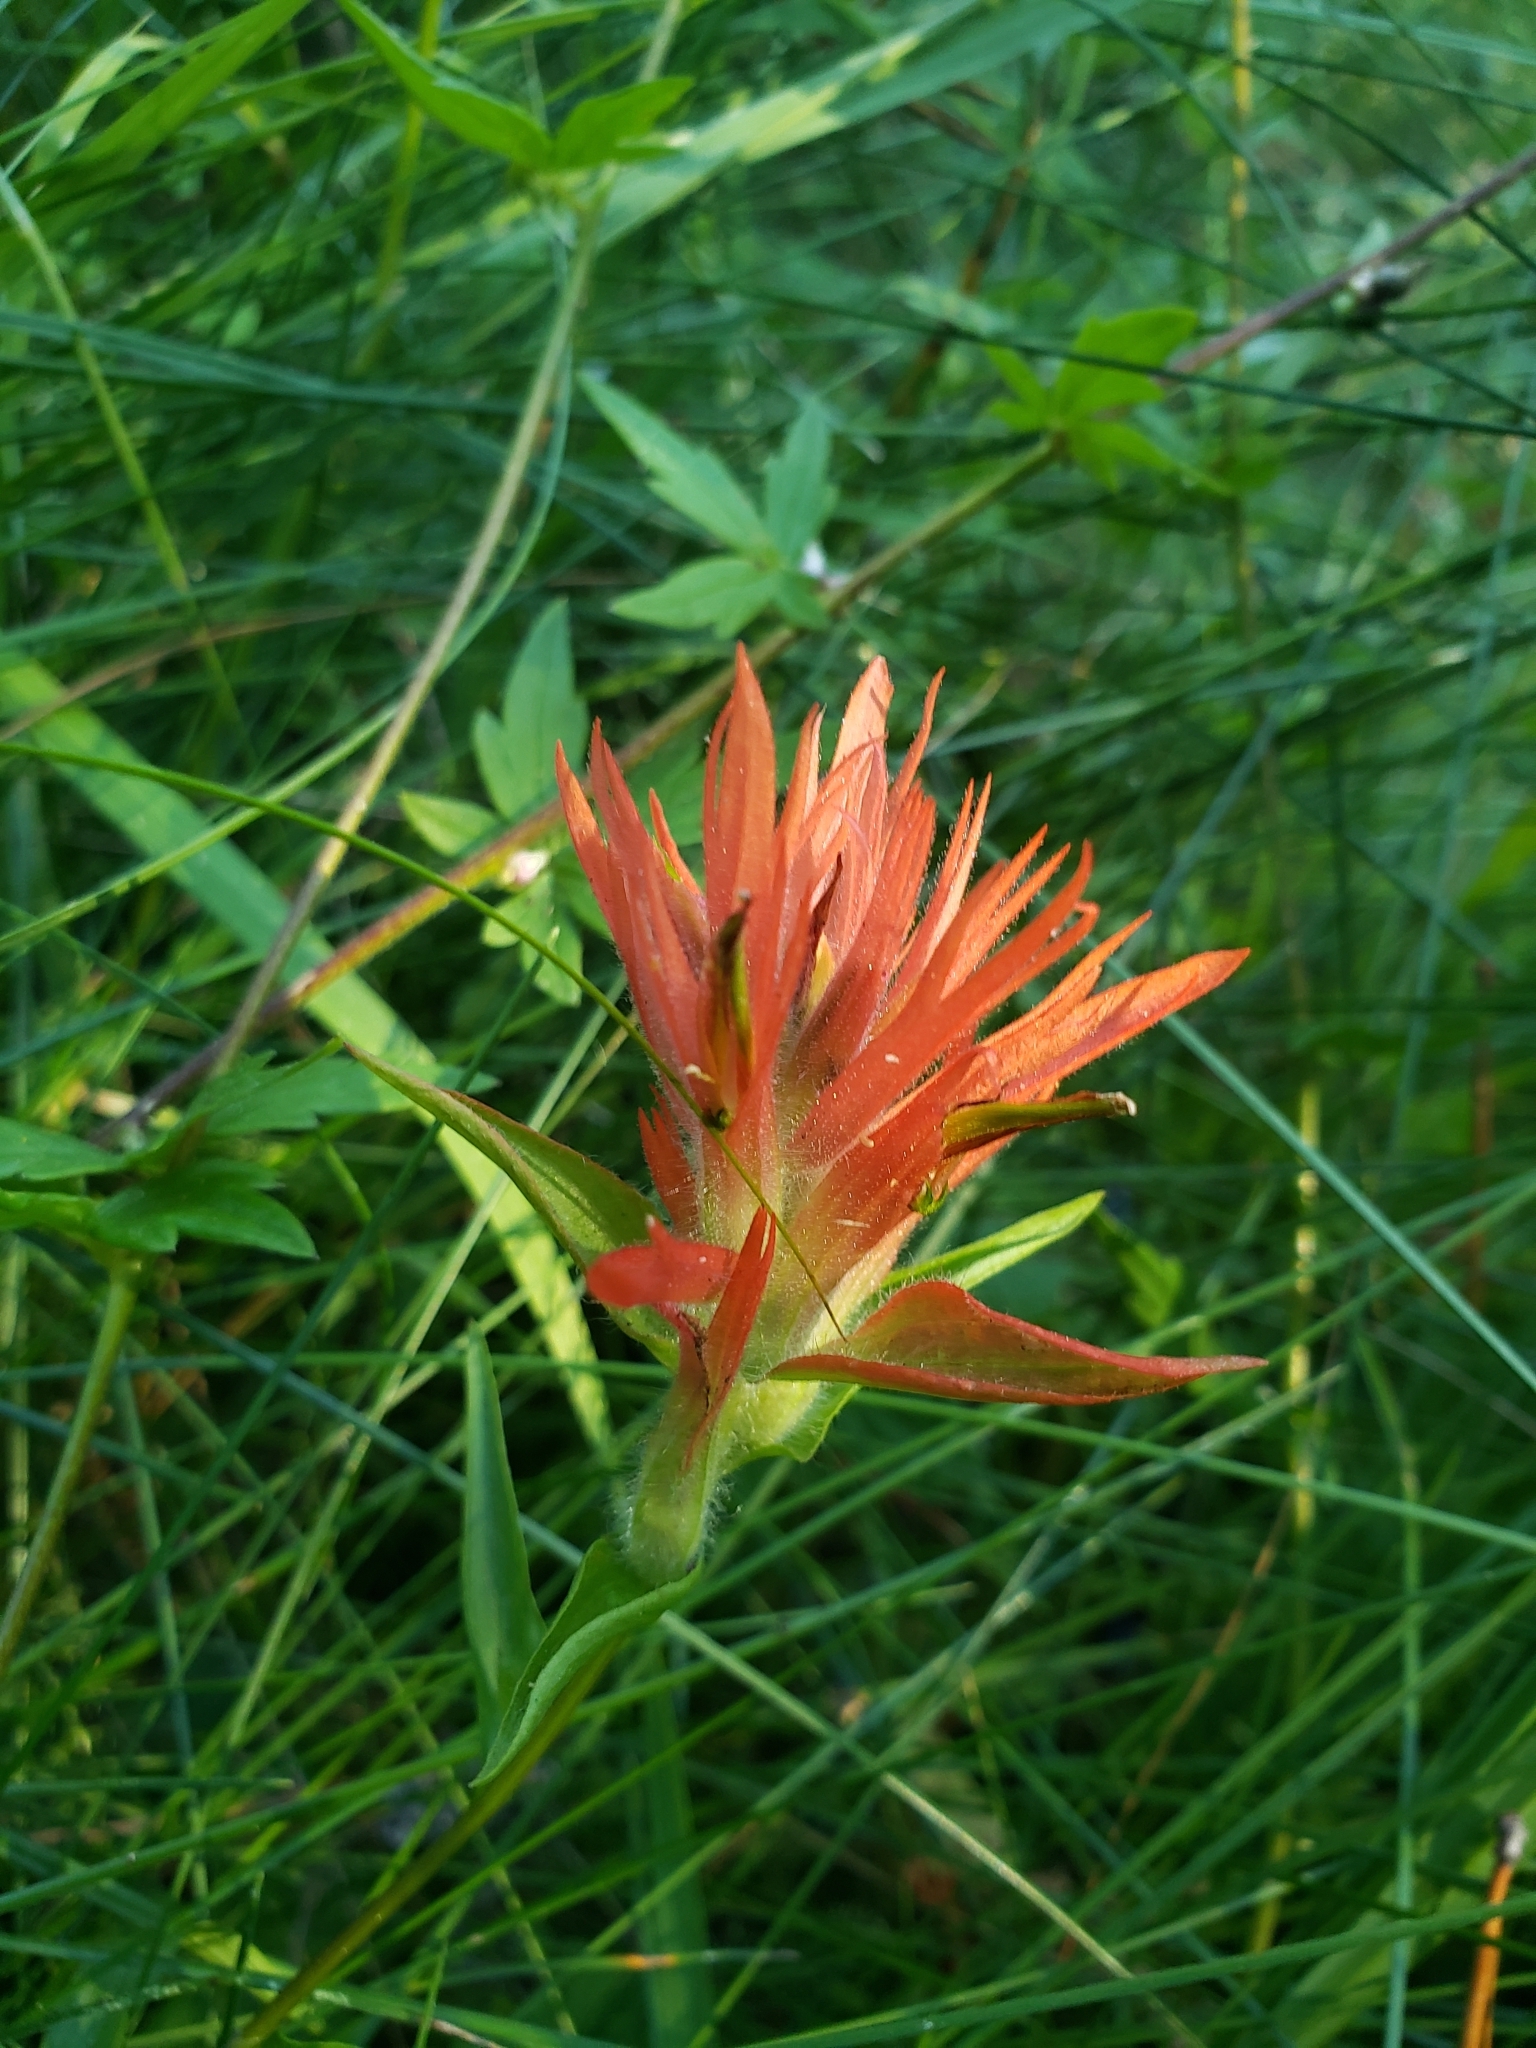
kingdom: Plantae
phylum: Tracheophyta
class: Magnoliopsida
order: Lamiales
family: Orobanchaceae
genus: Castilleja
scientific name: Castilleja miniata
